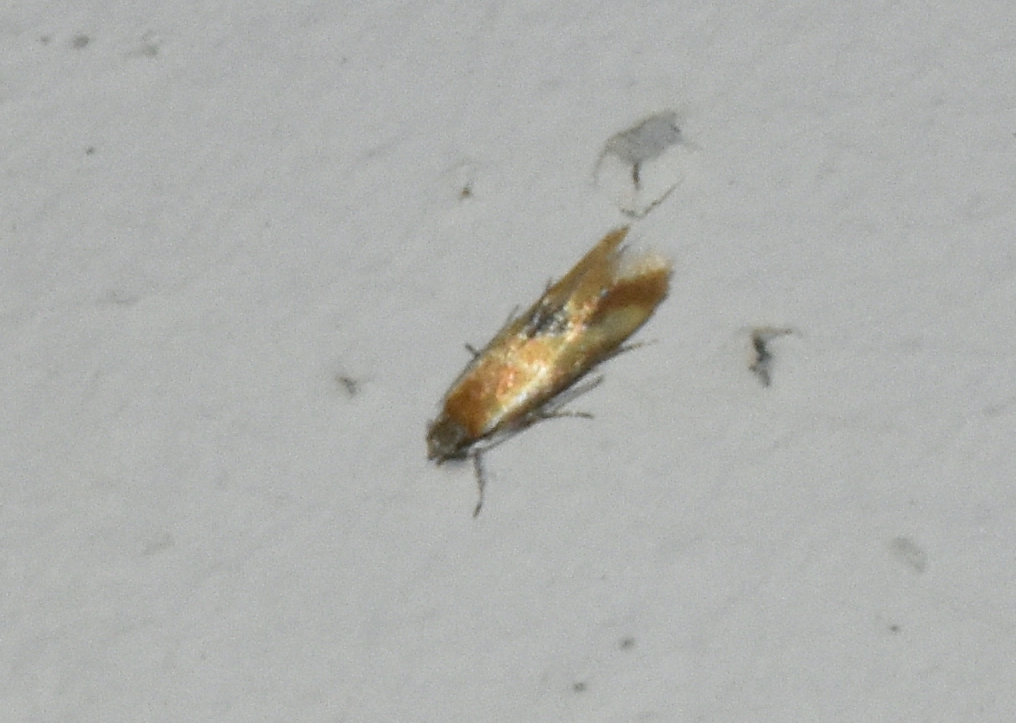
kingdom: Animalia
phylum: Arthropoda
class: Insecta
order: Lepidoptera
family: Oecophoridae
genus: Batia
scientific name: Batia lunaris
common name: Moth
